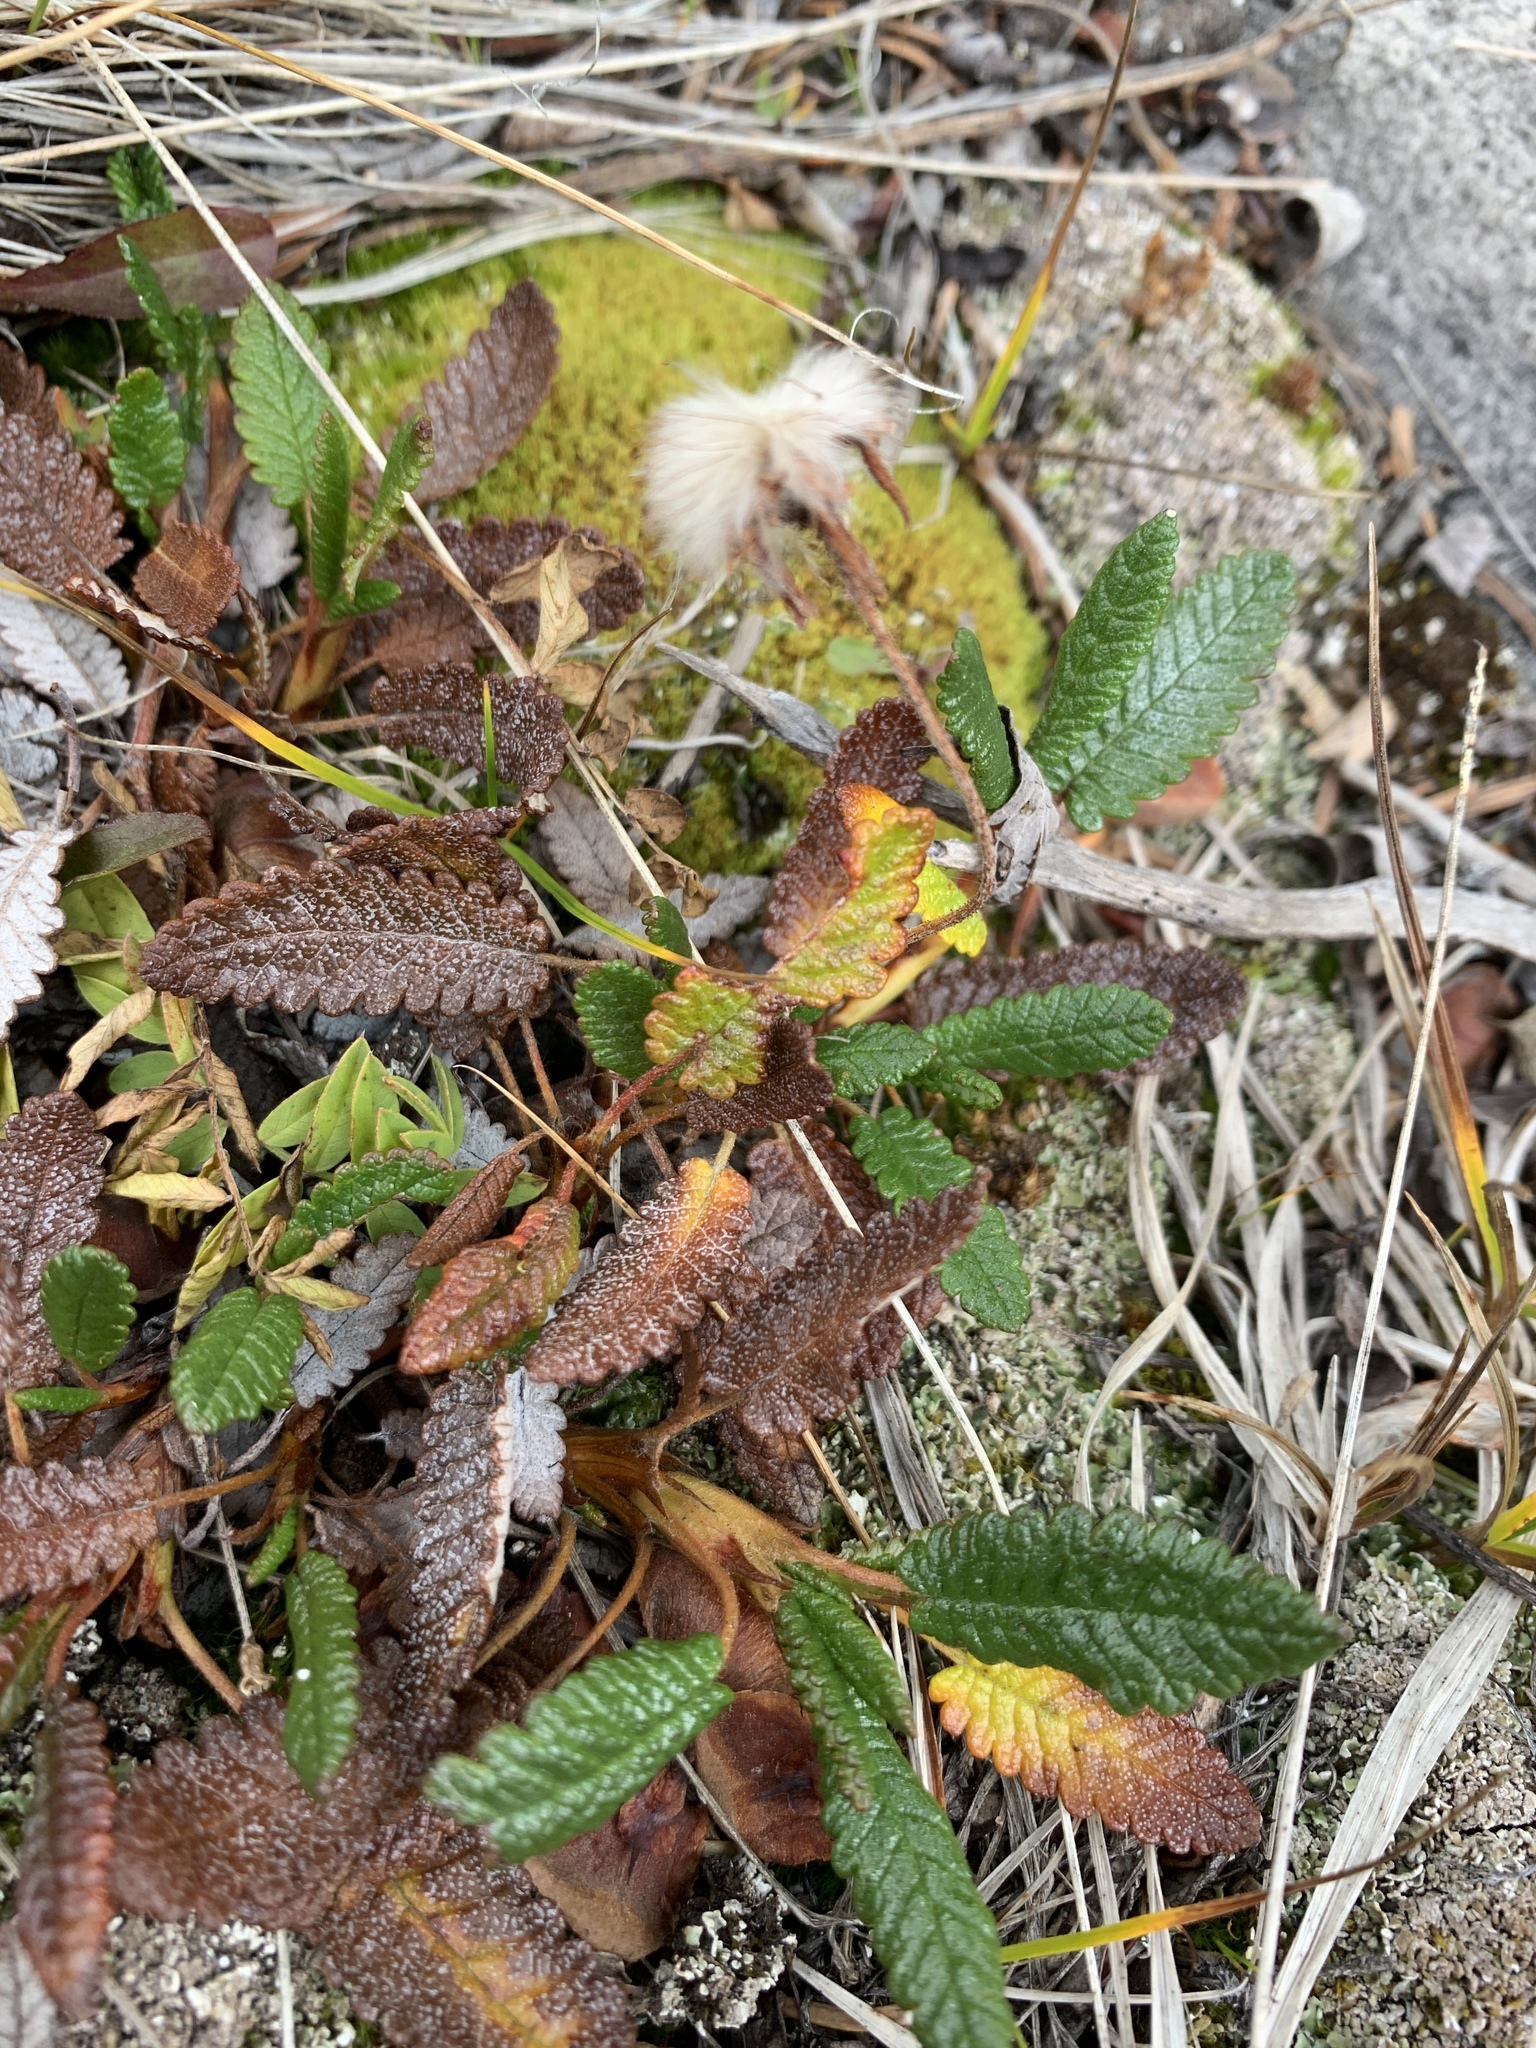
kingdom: Plantae
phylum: Tracheophyta
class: Magnoliopsida
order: Rosales
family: Rosaceae
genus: Dryas
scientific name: Dryas octopetala
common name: Eight-petal mountain-avens
